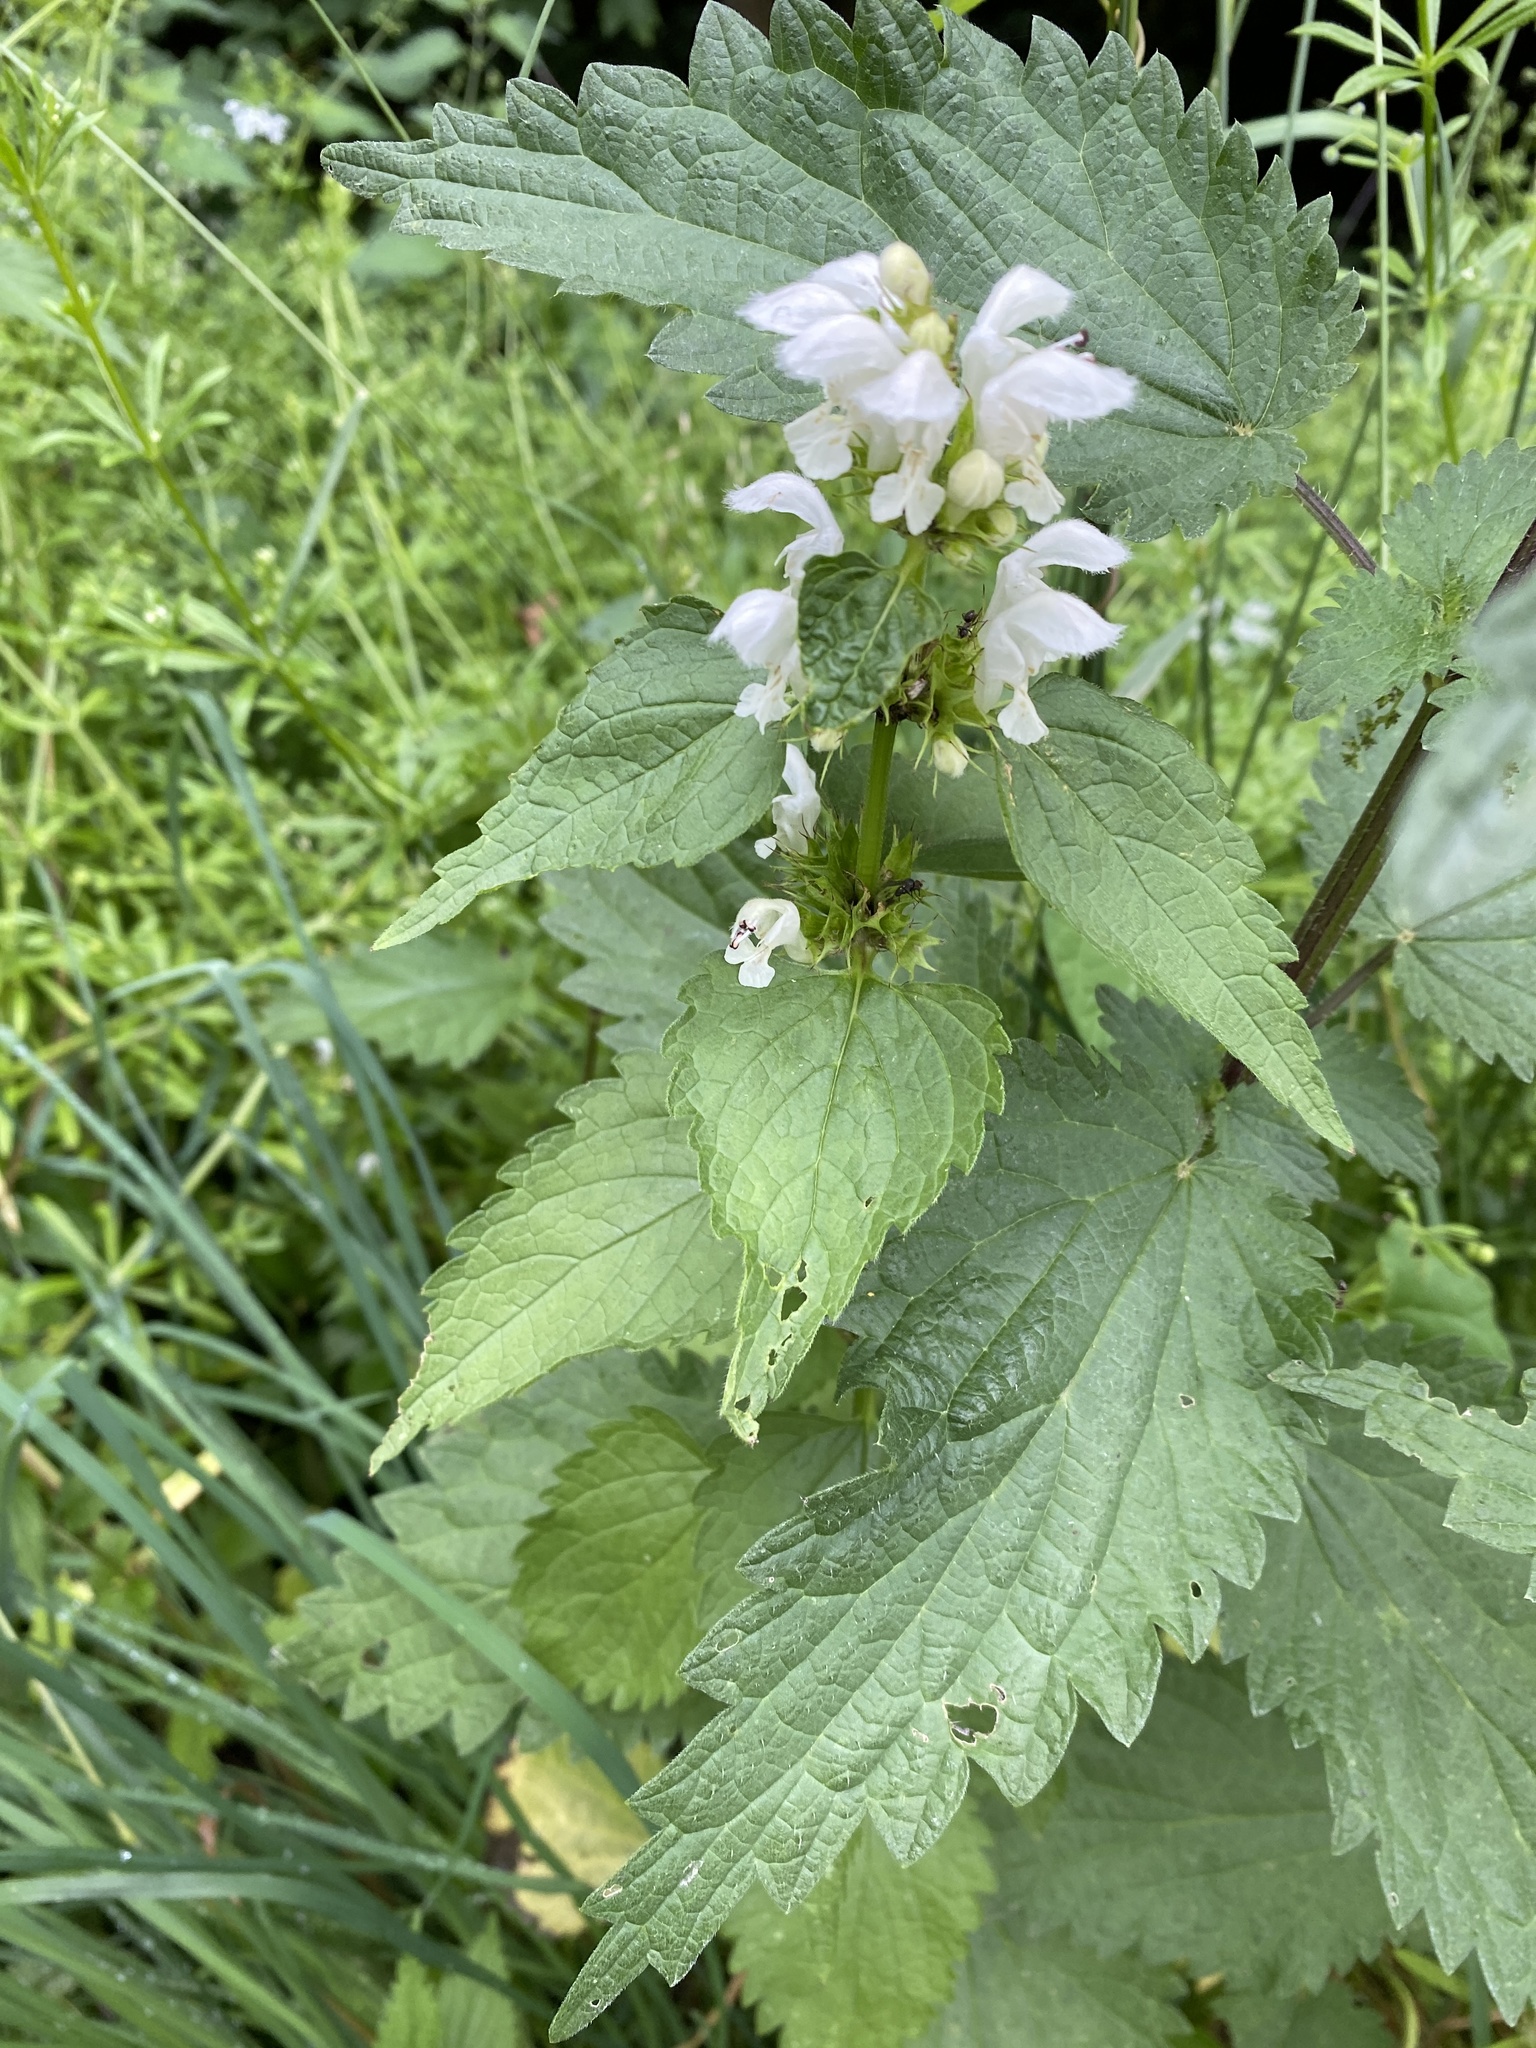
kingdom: Plantae
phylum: Tracheophyta
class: Magnoliopsida
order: Lamiales
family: Lamiaceae
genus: Lamium
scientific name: Lamium album
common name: White dead-nettle
